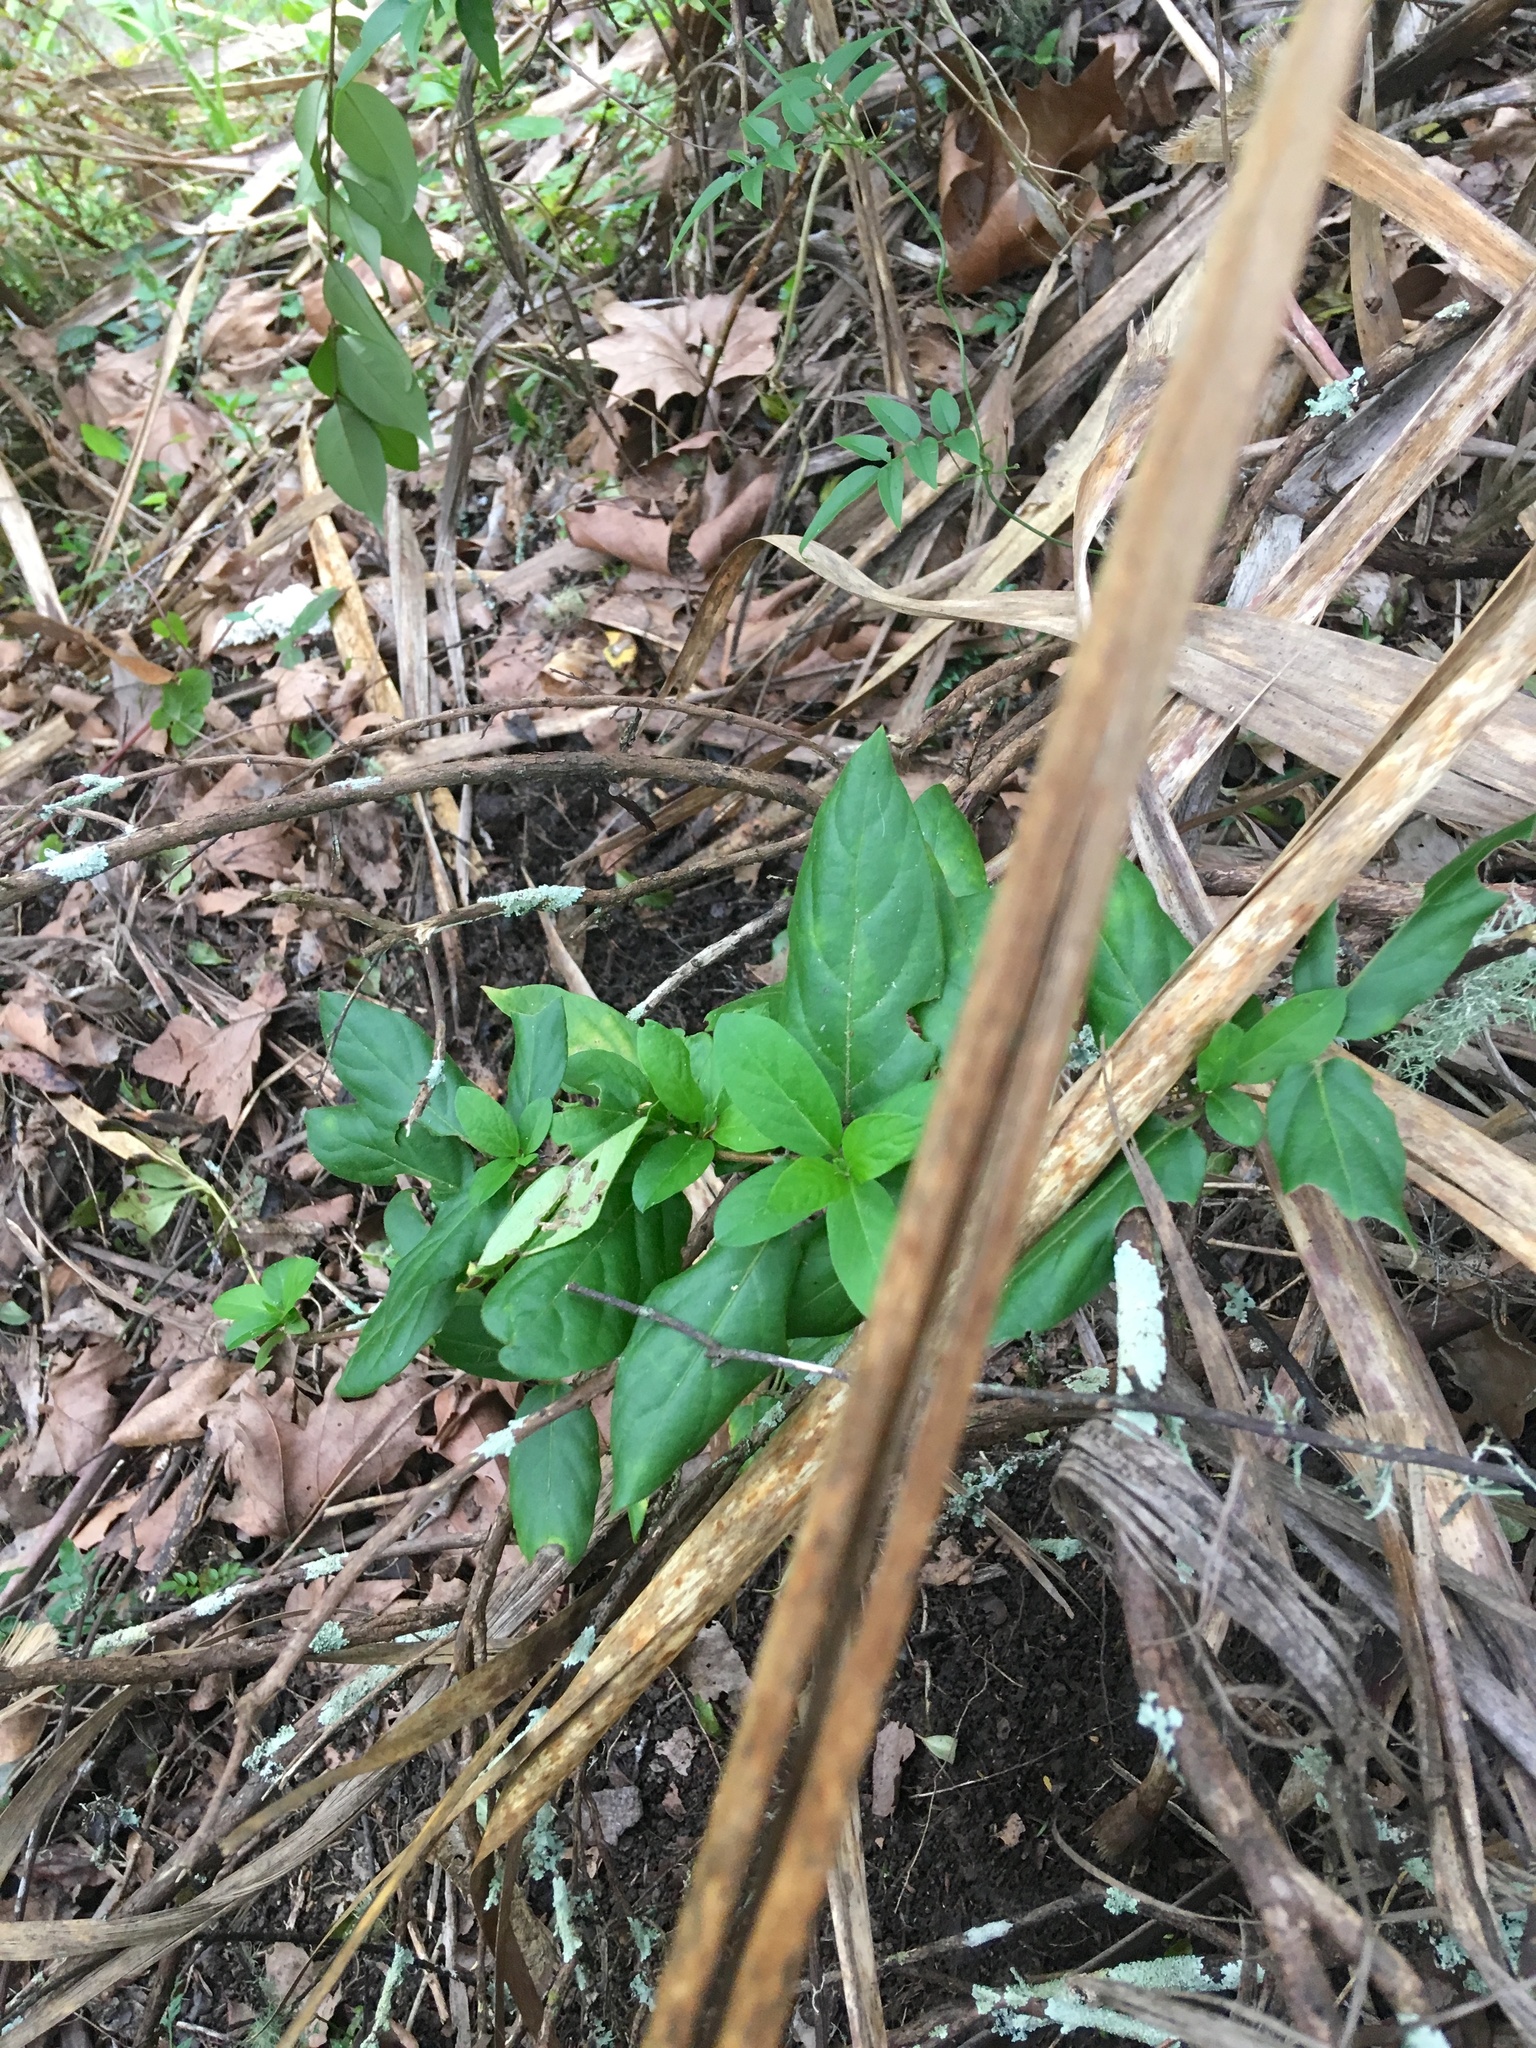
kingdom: Plantae
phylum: Tracheophyta
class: Magnoliopsida
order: Dipsacales
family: Caprifoliaceae
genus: Lonicera
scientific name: Lonicera japonica
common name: Japanese honeysuckle
